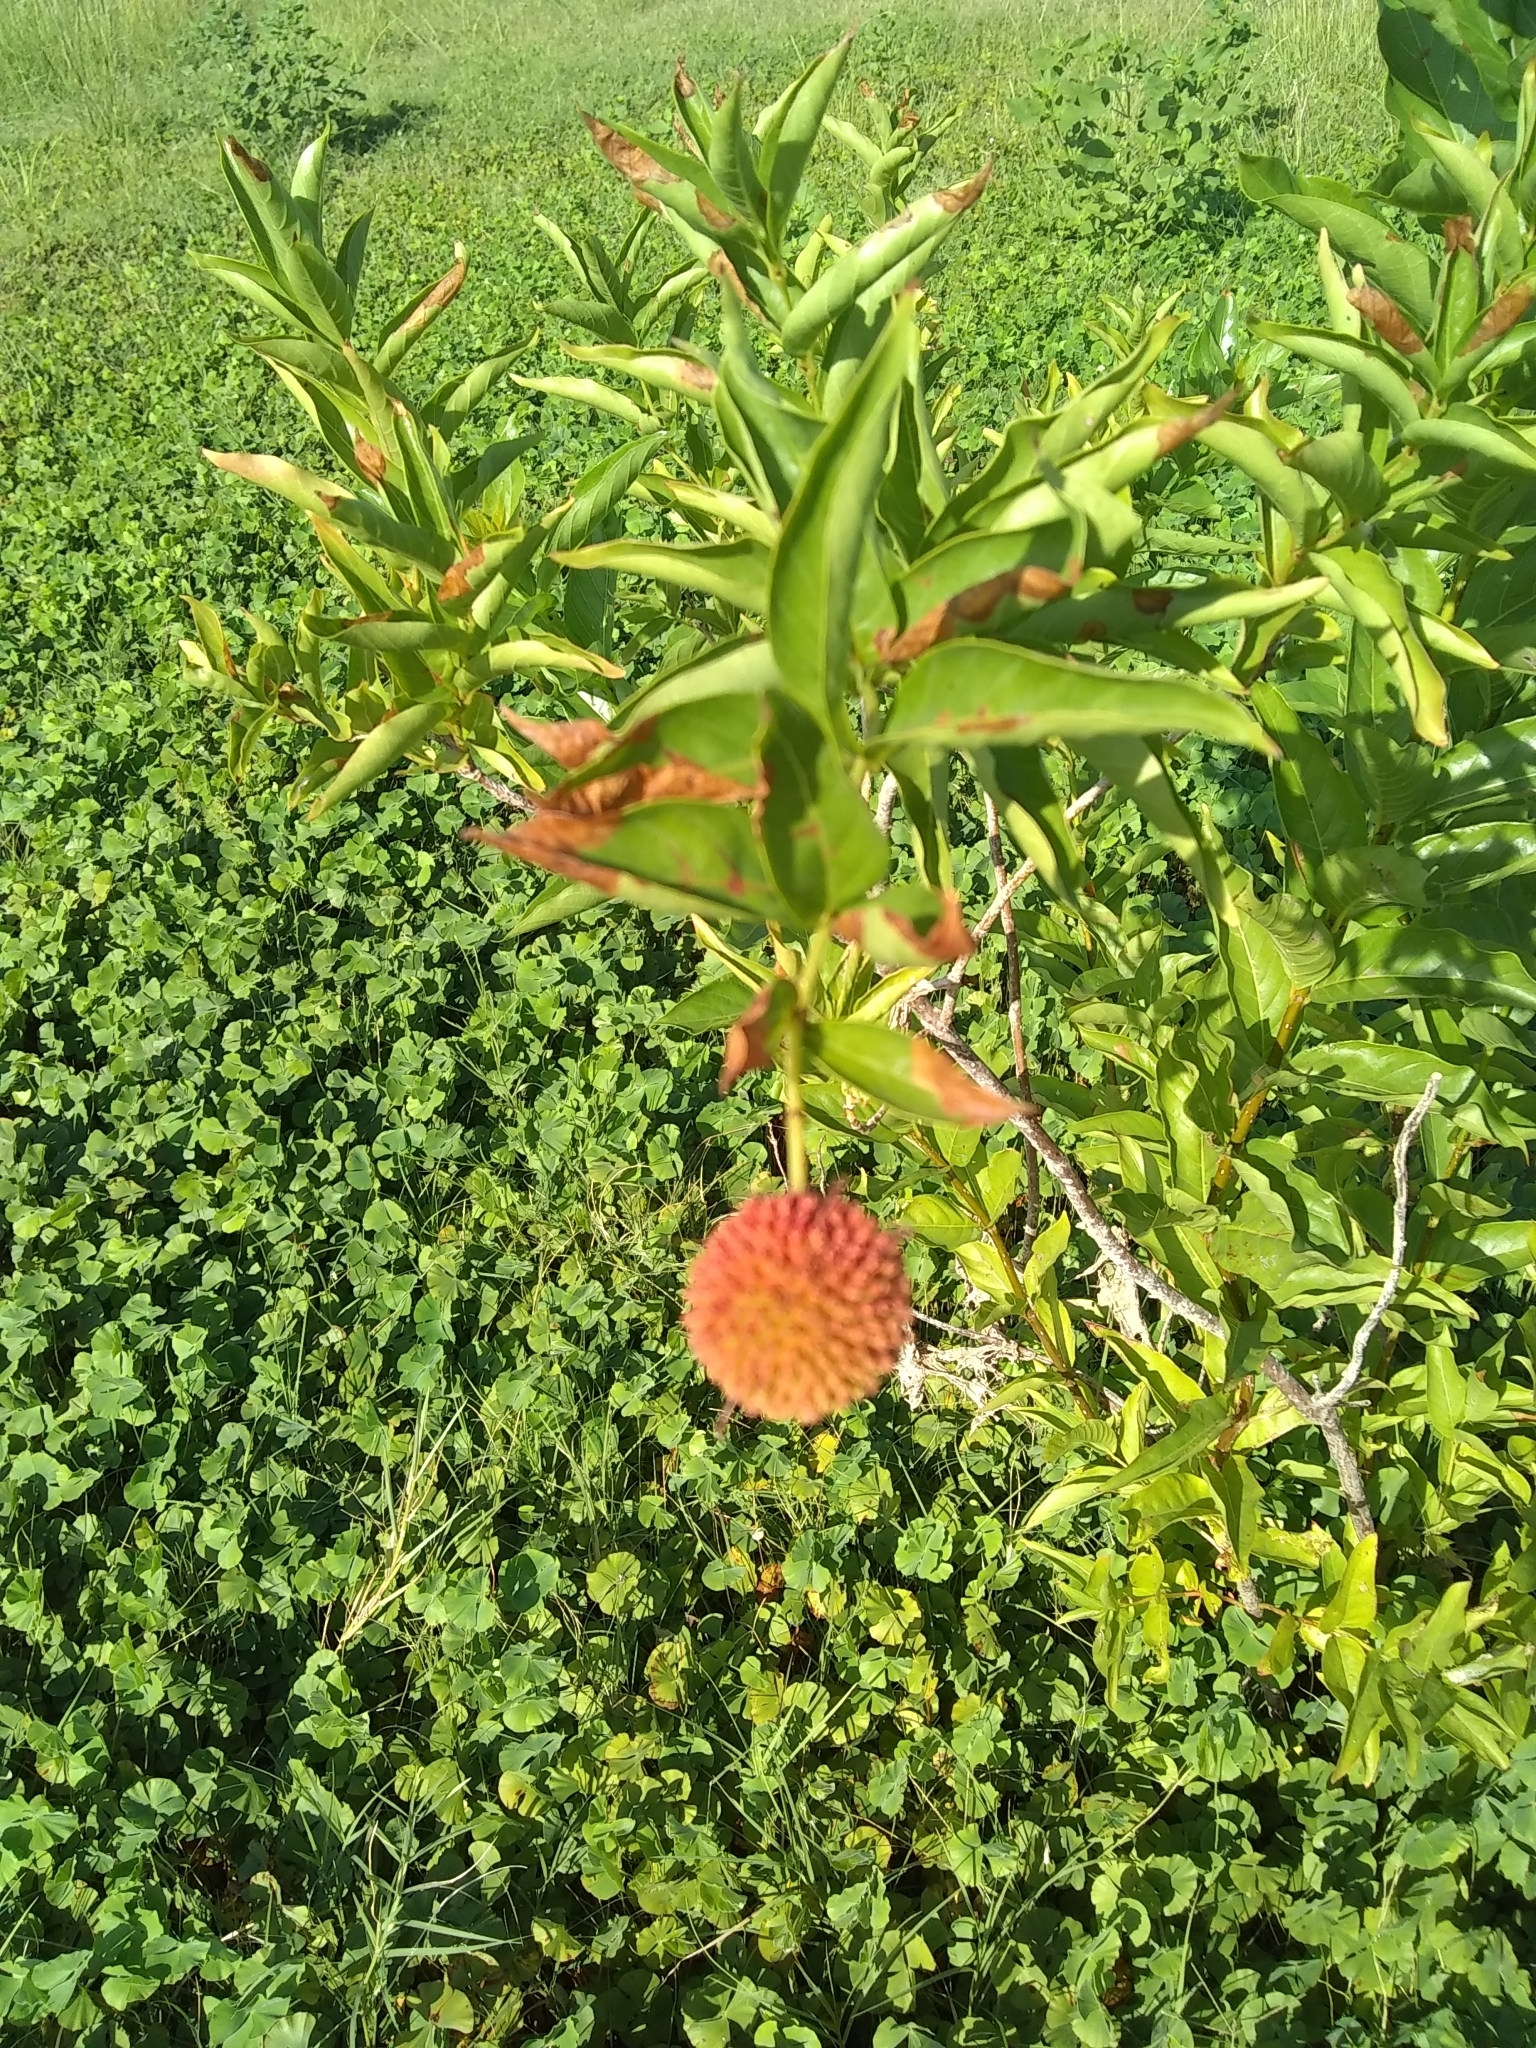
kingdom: Plantae
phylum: Tracheophyta
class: Magnoliopsida
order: Gentianales
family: Rubiaceae
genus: Cephalanthus
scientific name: Cephalanthus occidentalis
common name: Button-willow
